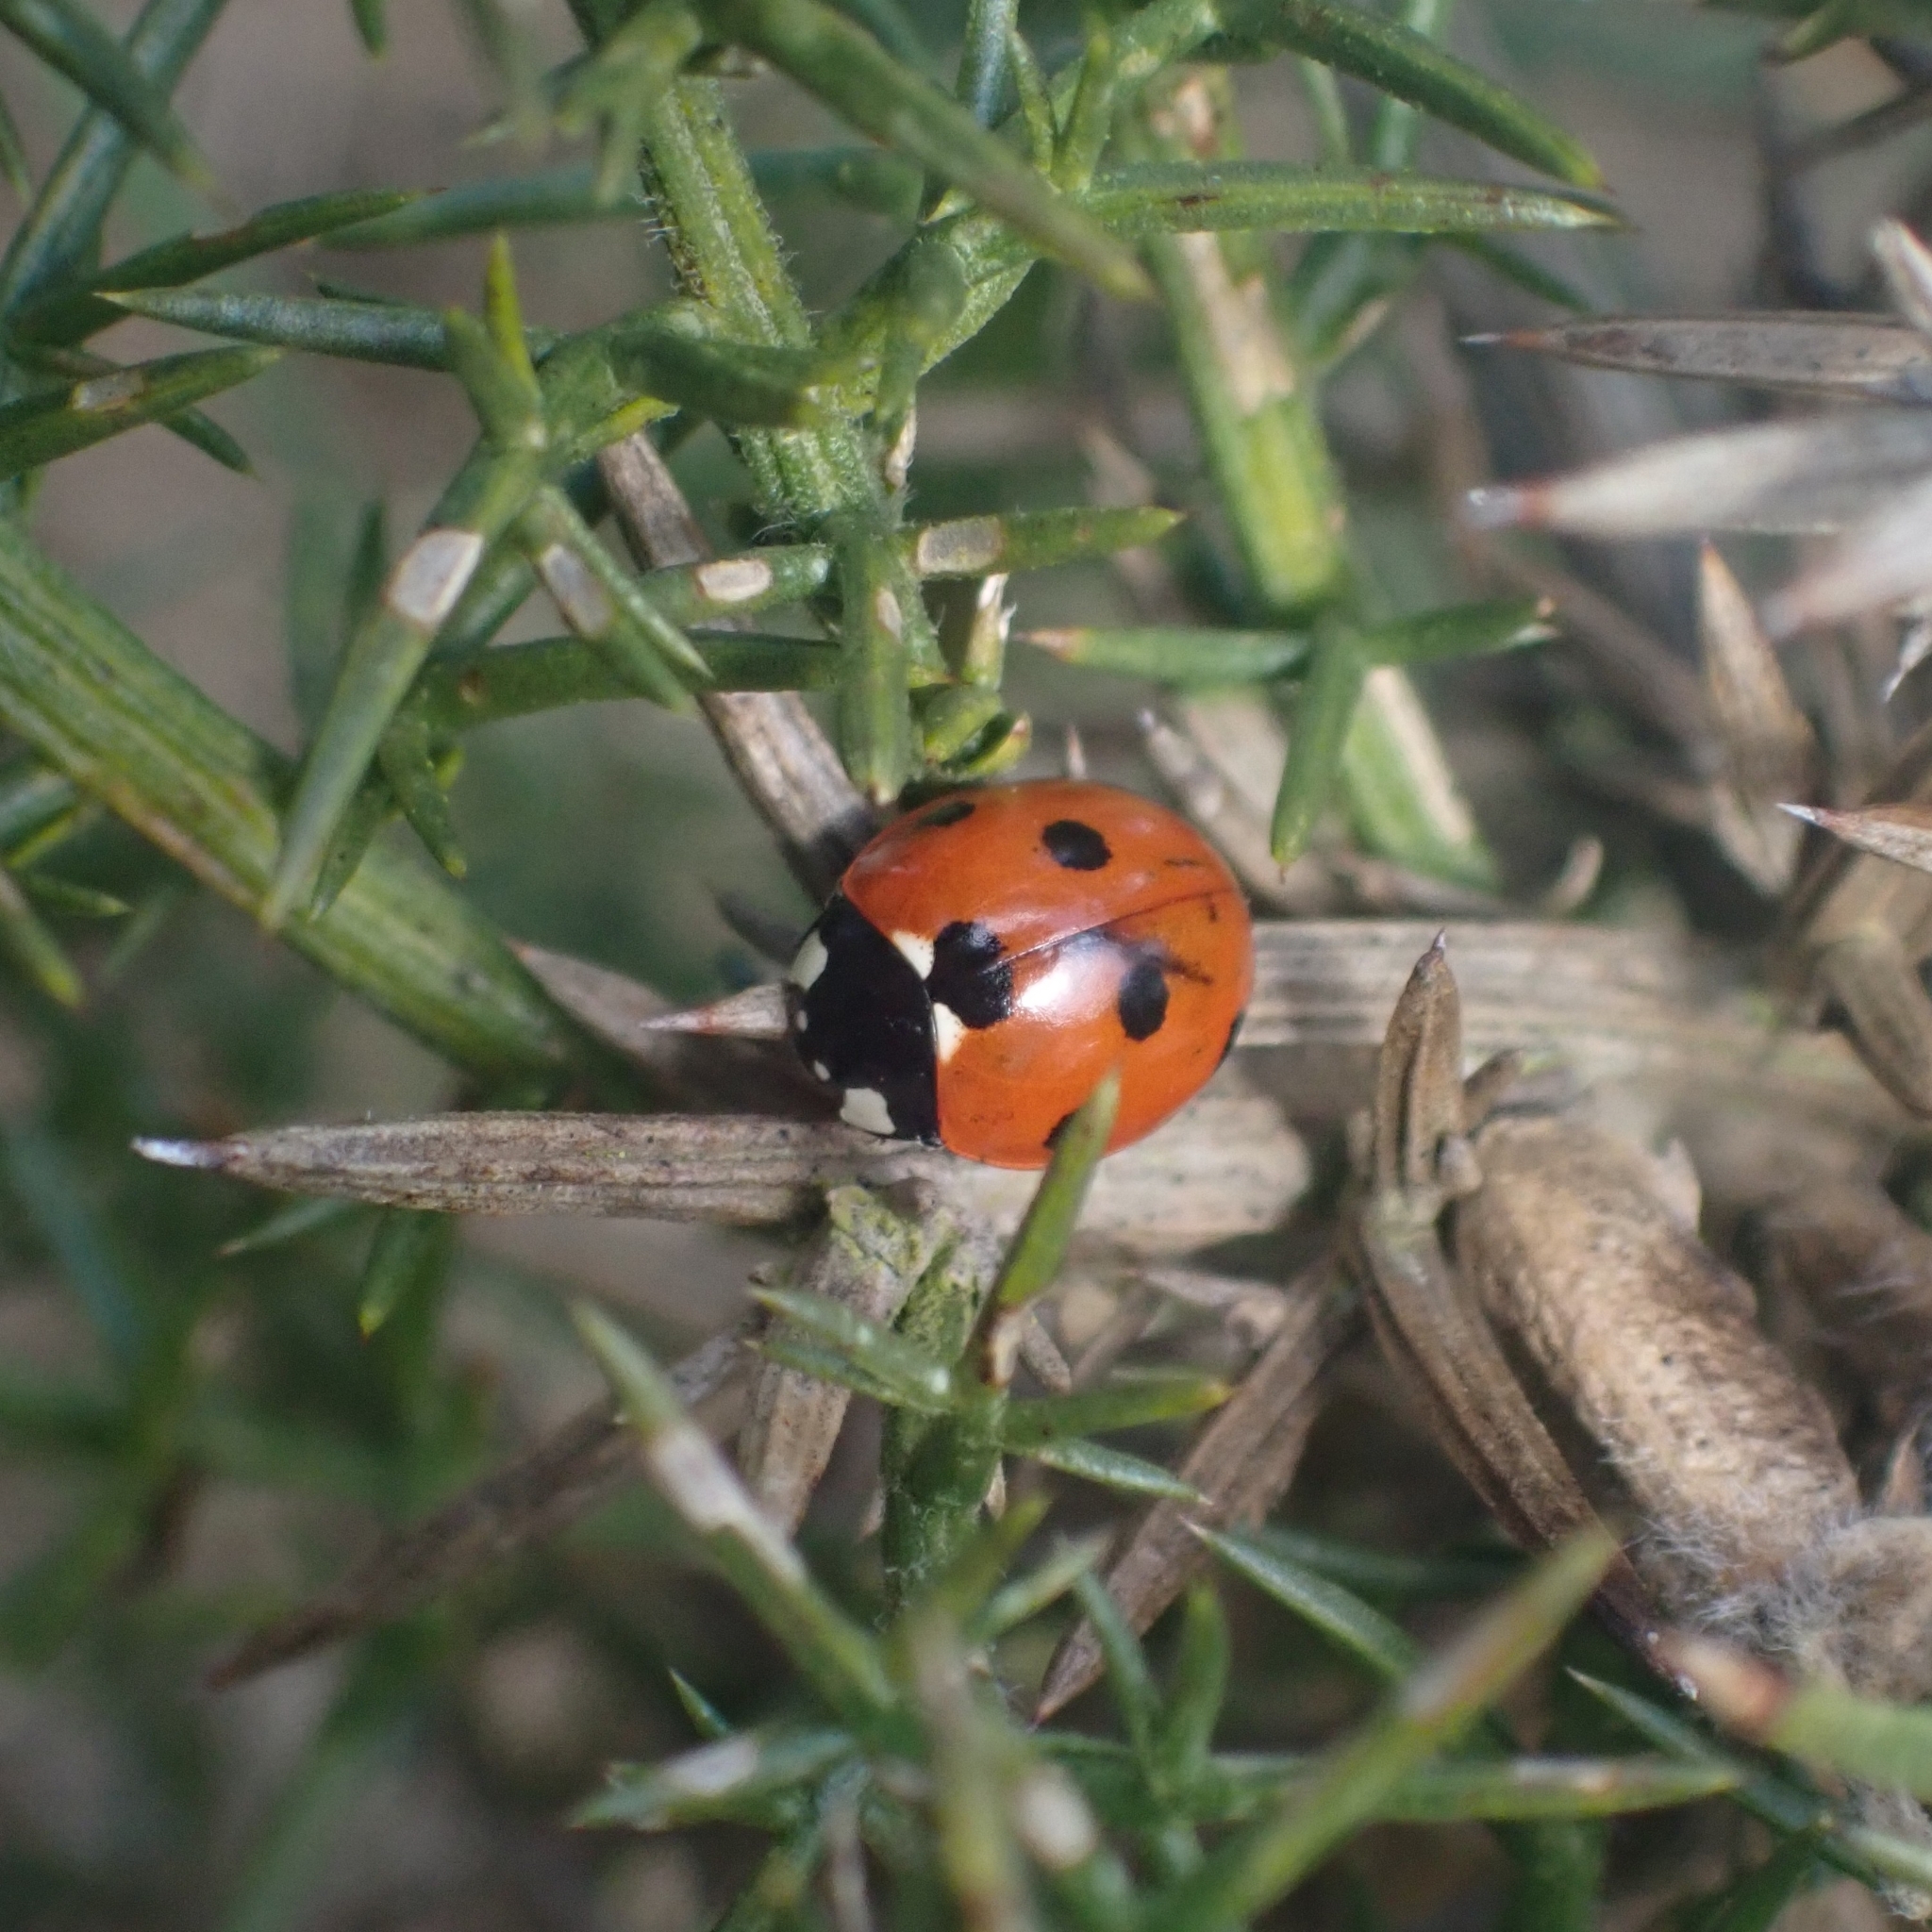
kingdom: Animalia
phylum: Arthropoda
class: Insecta
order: Coleoptera
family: Coccinellidae
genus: Coccinella
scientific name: Coccinella septempunctata
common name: Sevenspotted lady beetle
